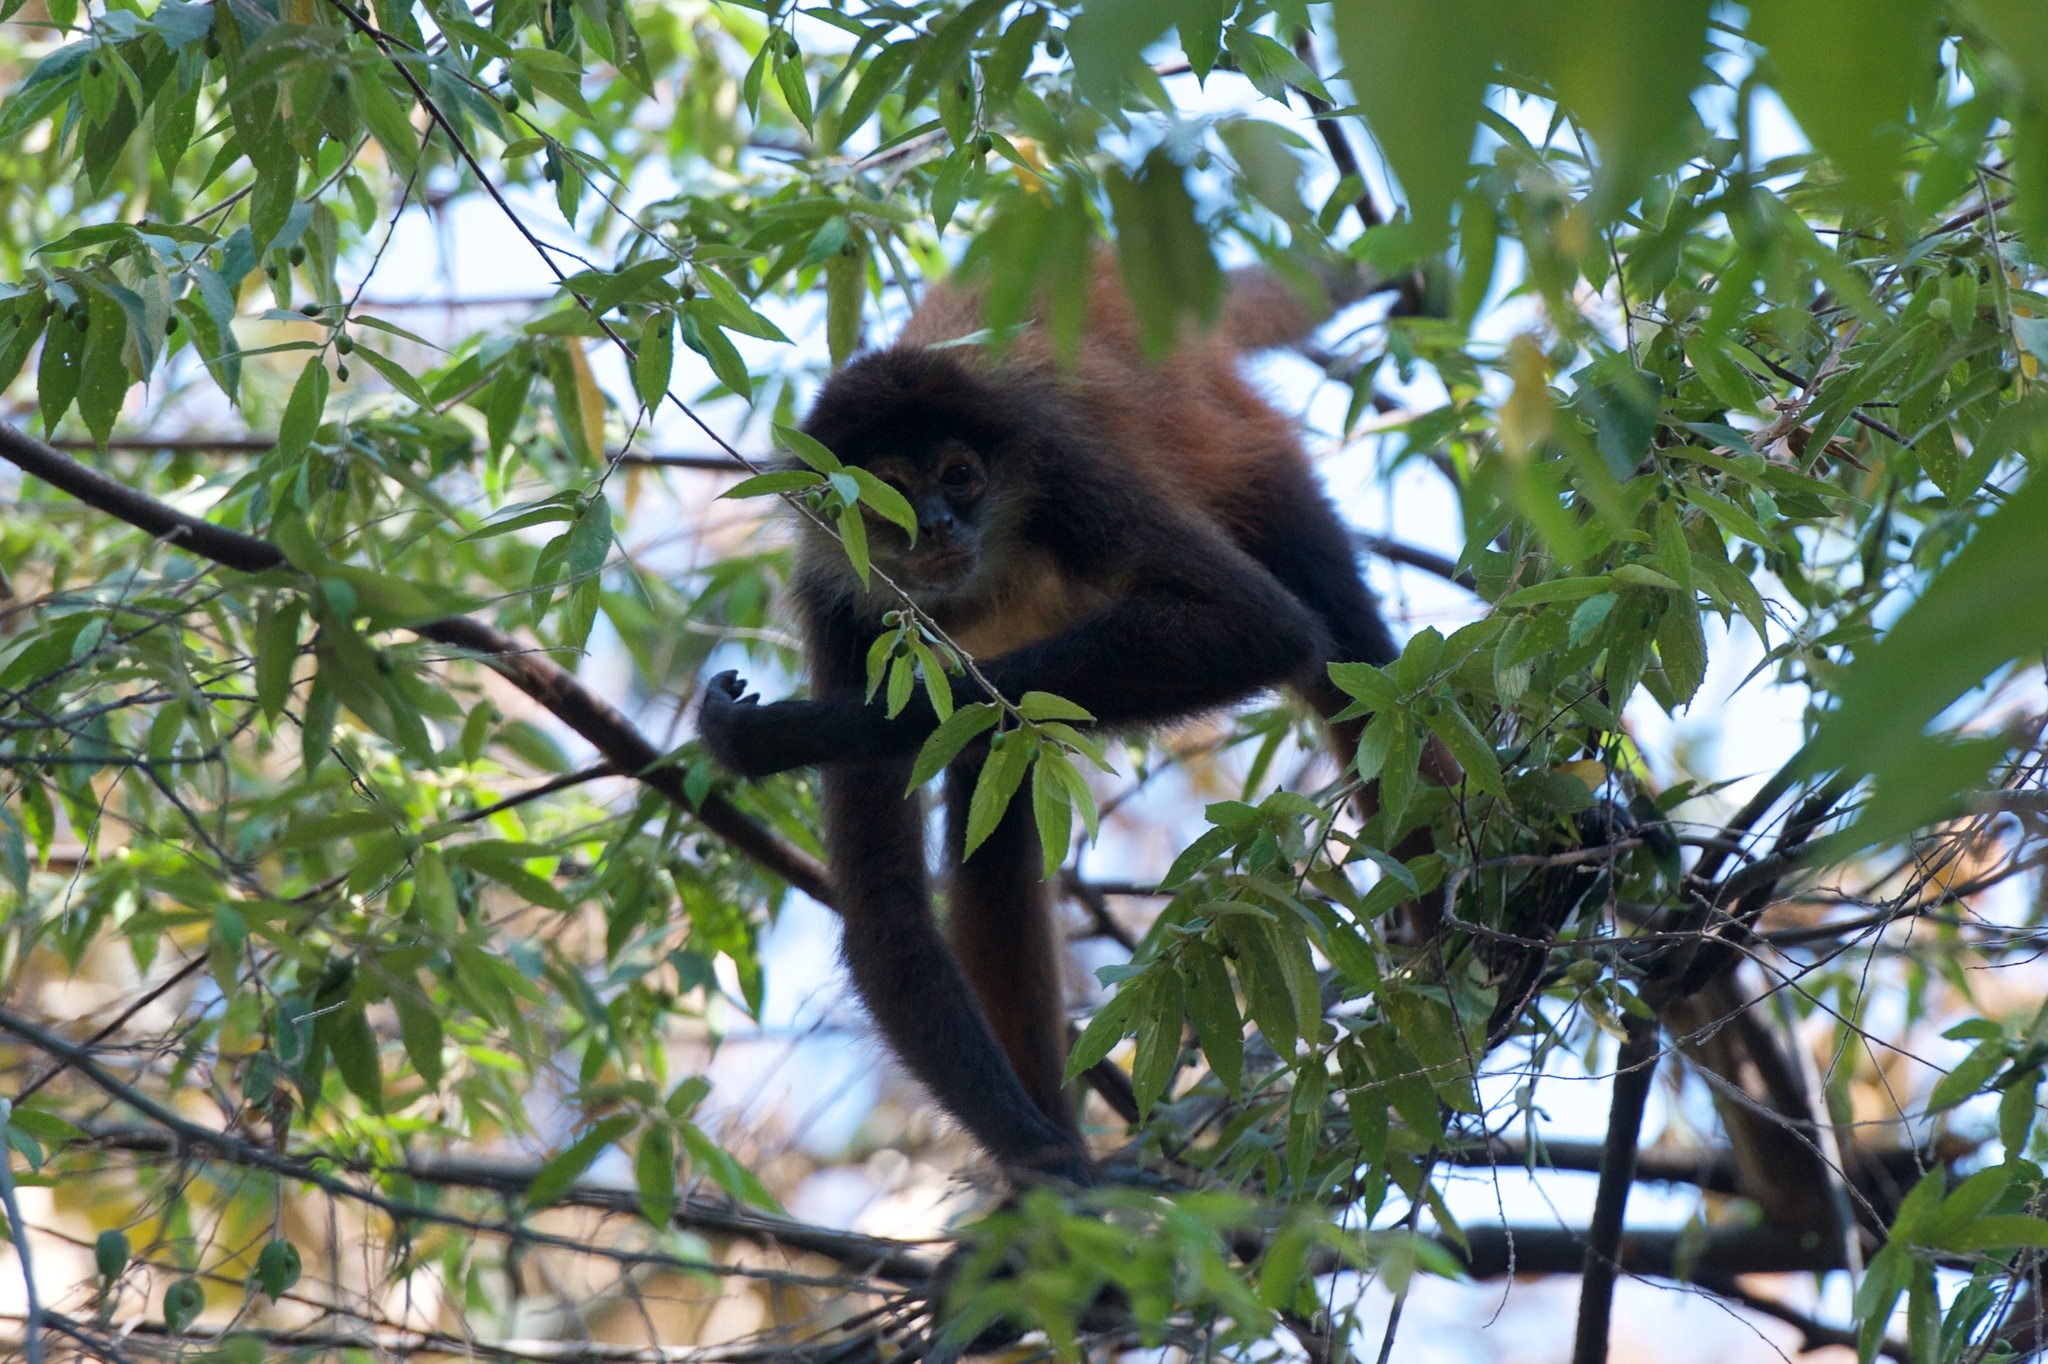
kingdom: Animalia
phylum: Chordata
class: Mammalia
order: Primates
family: Atelidae
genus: Ateles
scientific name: Ateles geoffroyi
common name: Black-handed spider monkey
